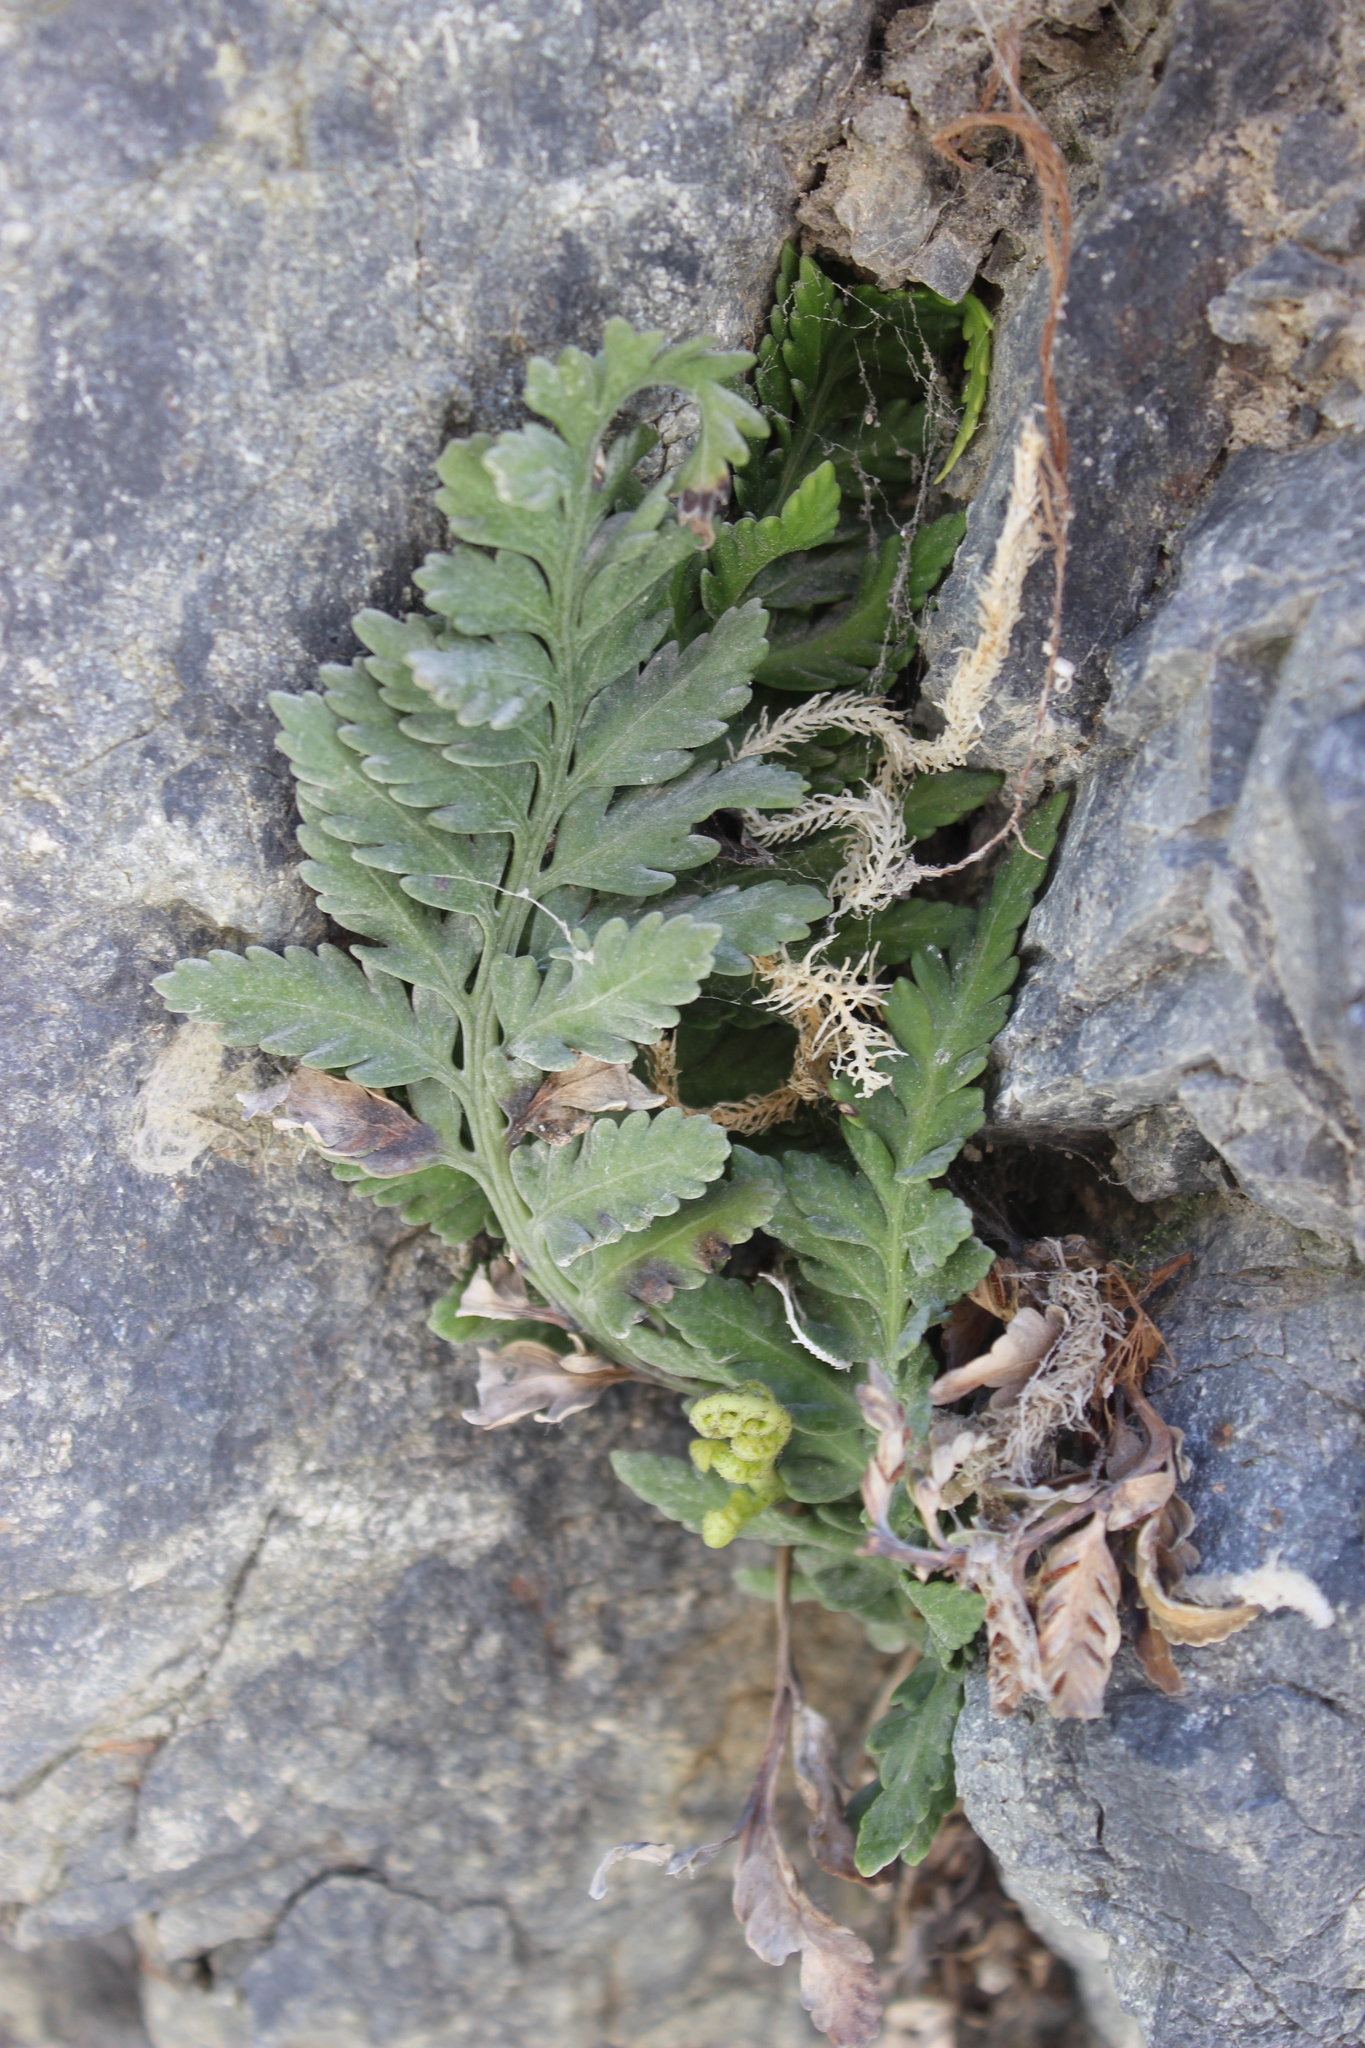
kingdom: Plantae
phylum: Tracheophyta
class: Polypodiopsida
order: Polypodiales
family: Aspleniaceae
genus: Asplenium
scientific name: Asplenium appendiculatum
